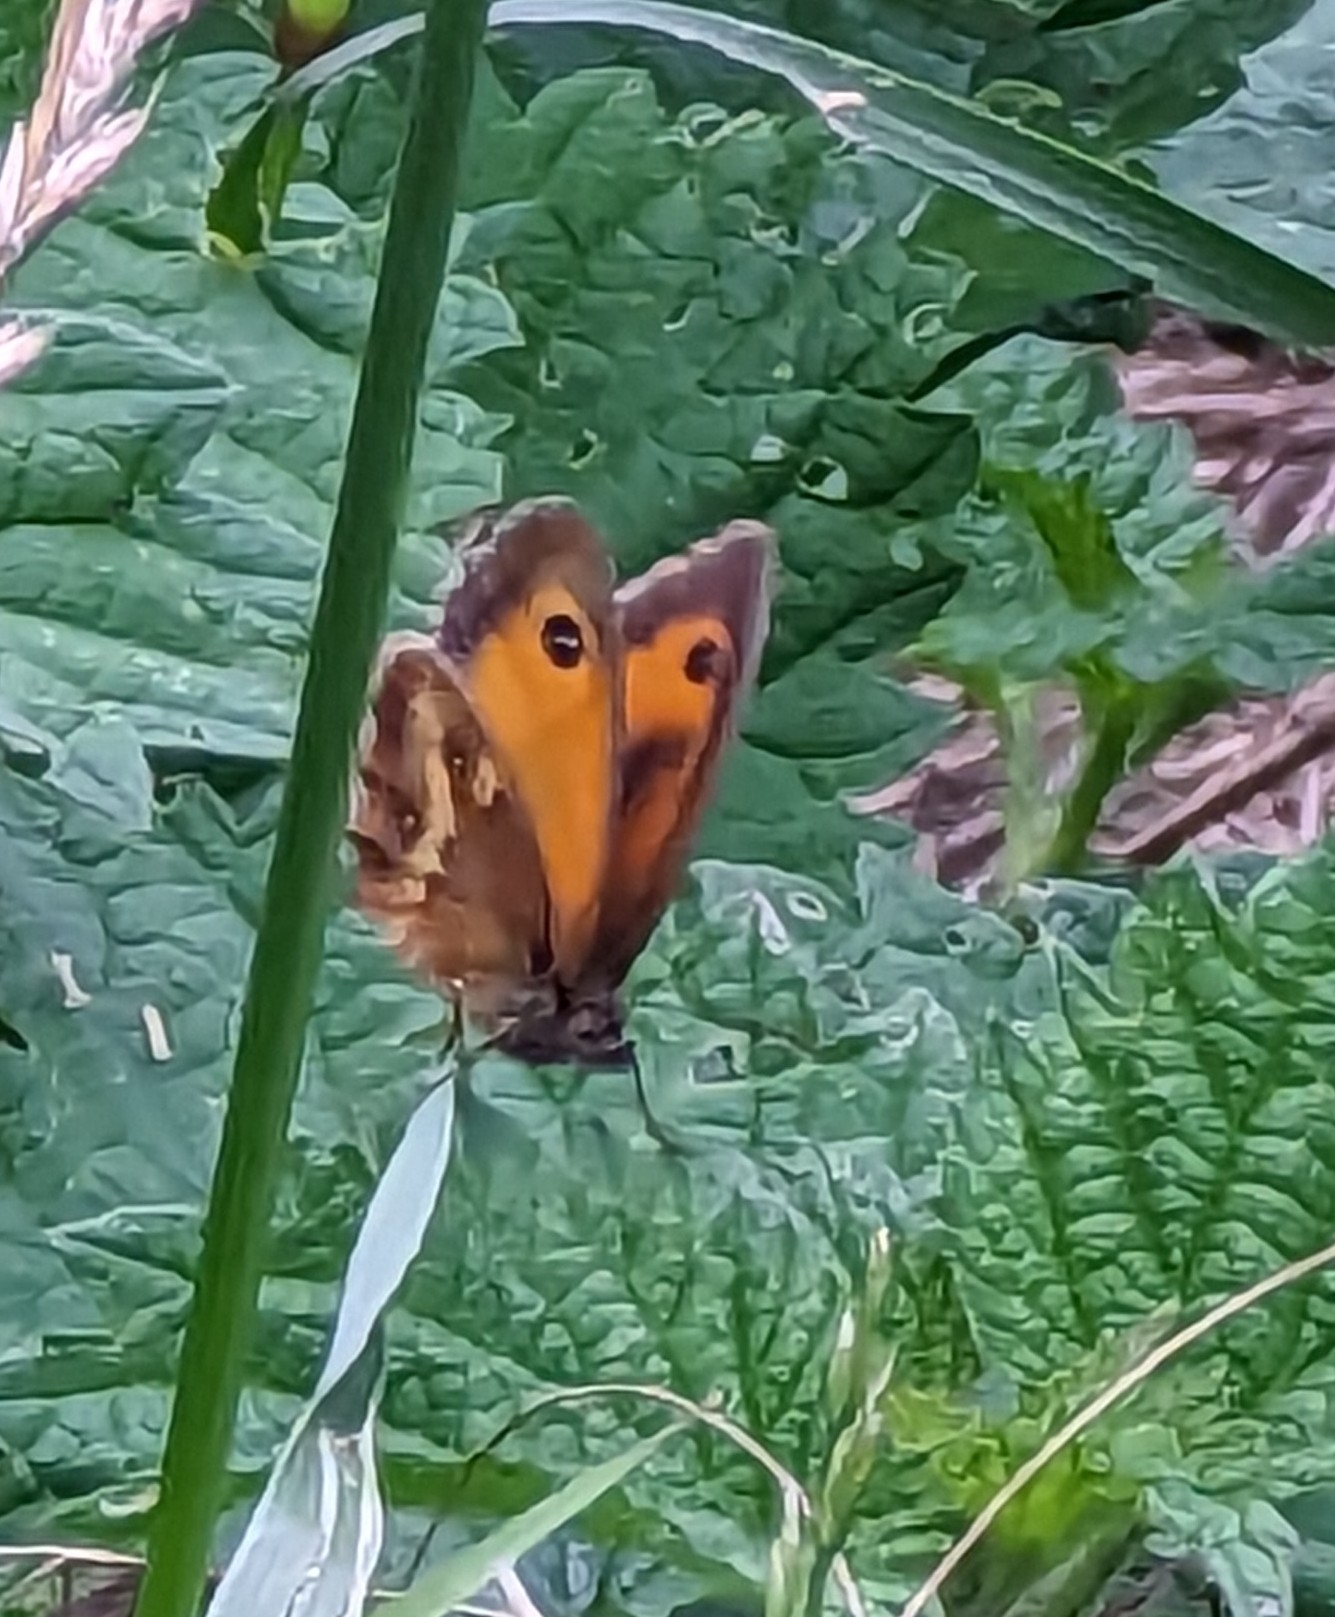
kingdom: Animalia
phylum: Arthropoda
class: Insecta
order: Lepidoptera
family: Nymphalidae
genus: Pyronia
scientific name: Pyronia tithonus
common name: Gatekeeper
